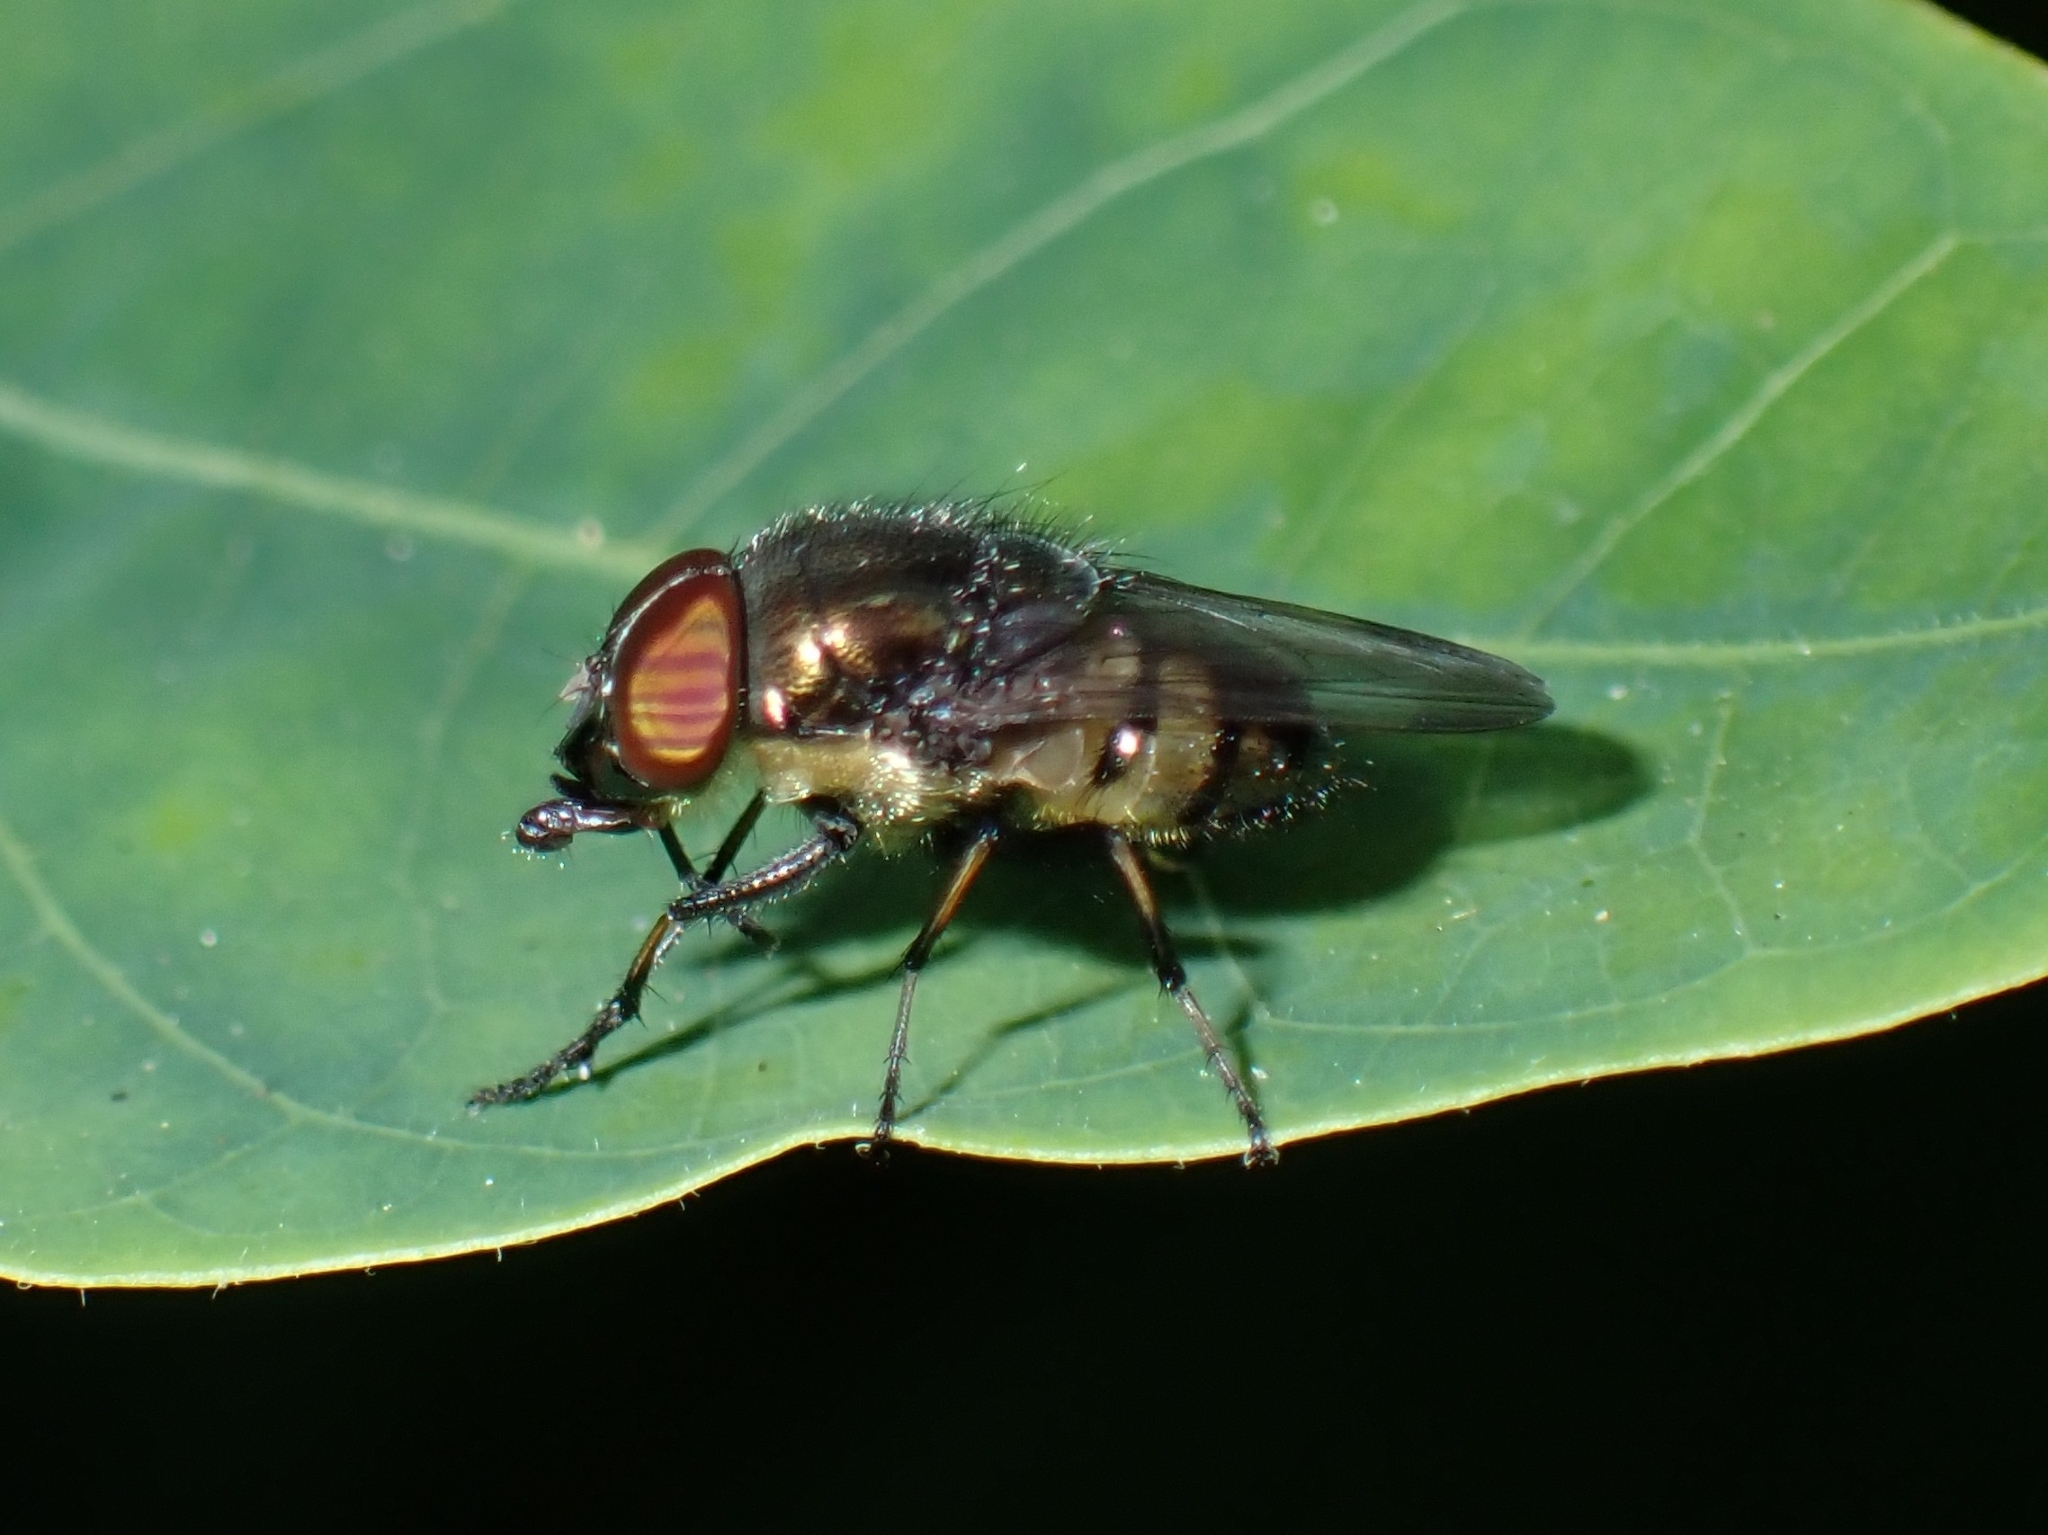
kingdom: Animalia
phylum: Arthropoda
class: Insecta
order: Diptera
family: Calliphoridae
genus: Stomorhina
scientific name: Stomorhina discolor
